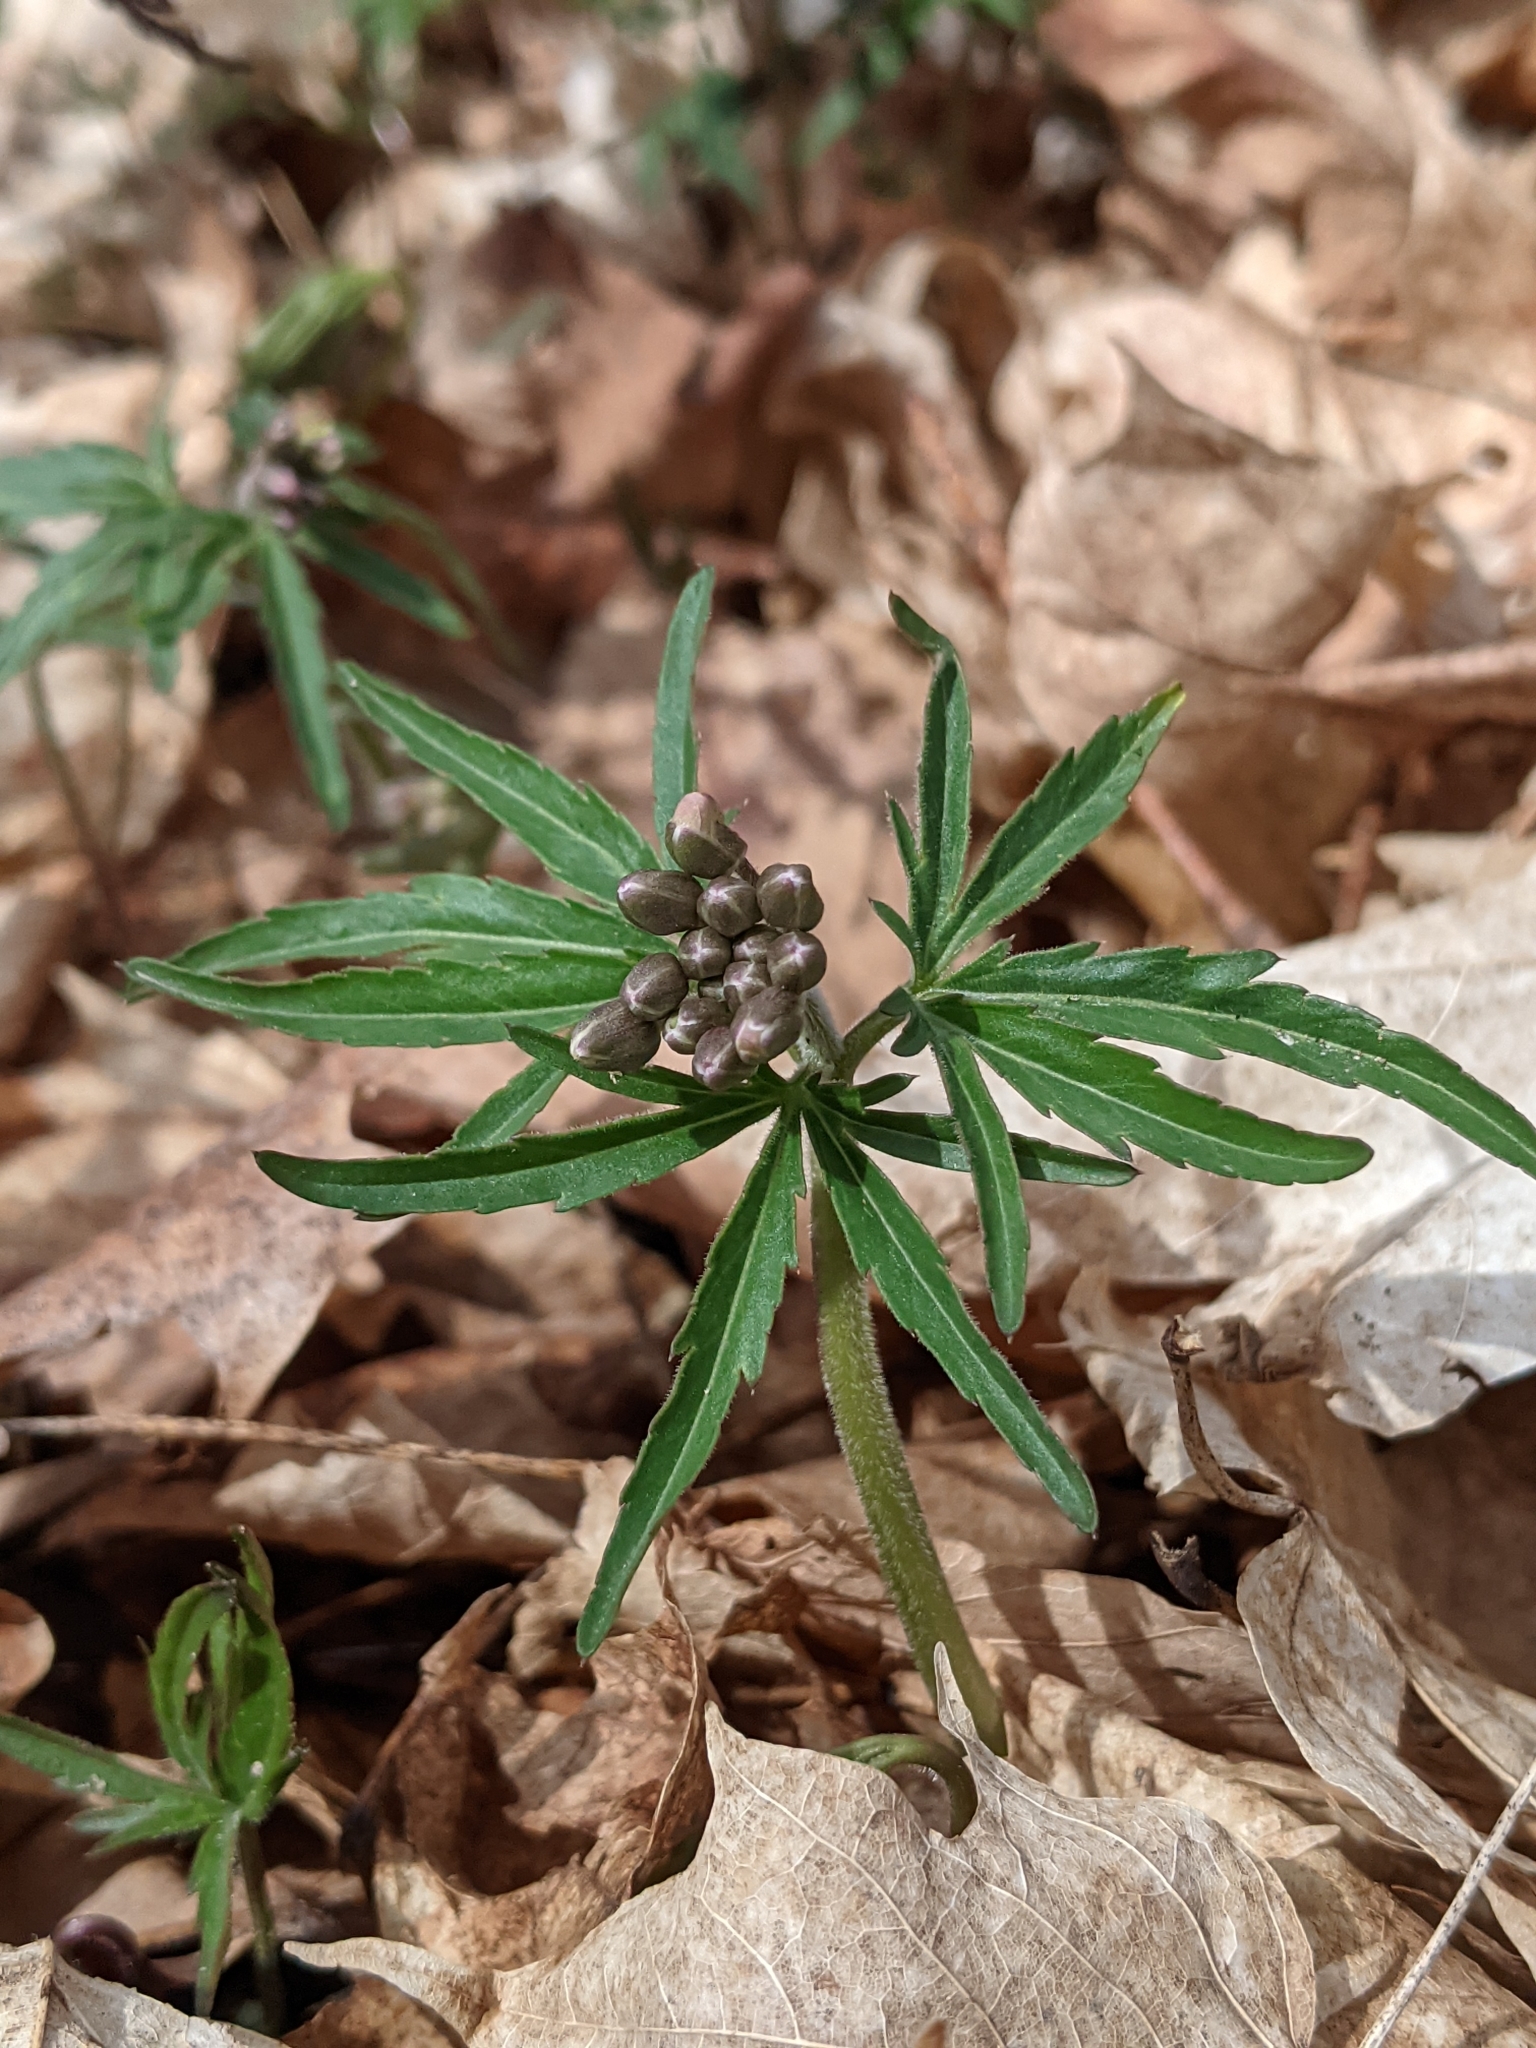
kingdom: Plantae
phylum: Tracheophyta
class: Magnoliopsida
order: Brassicales
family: Brassicaceae
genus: Cardamine
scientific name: Cardamine concatenata
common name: Cut-leaf toothcup
